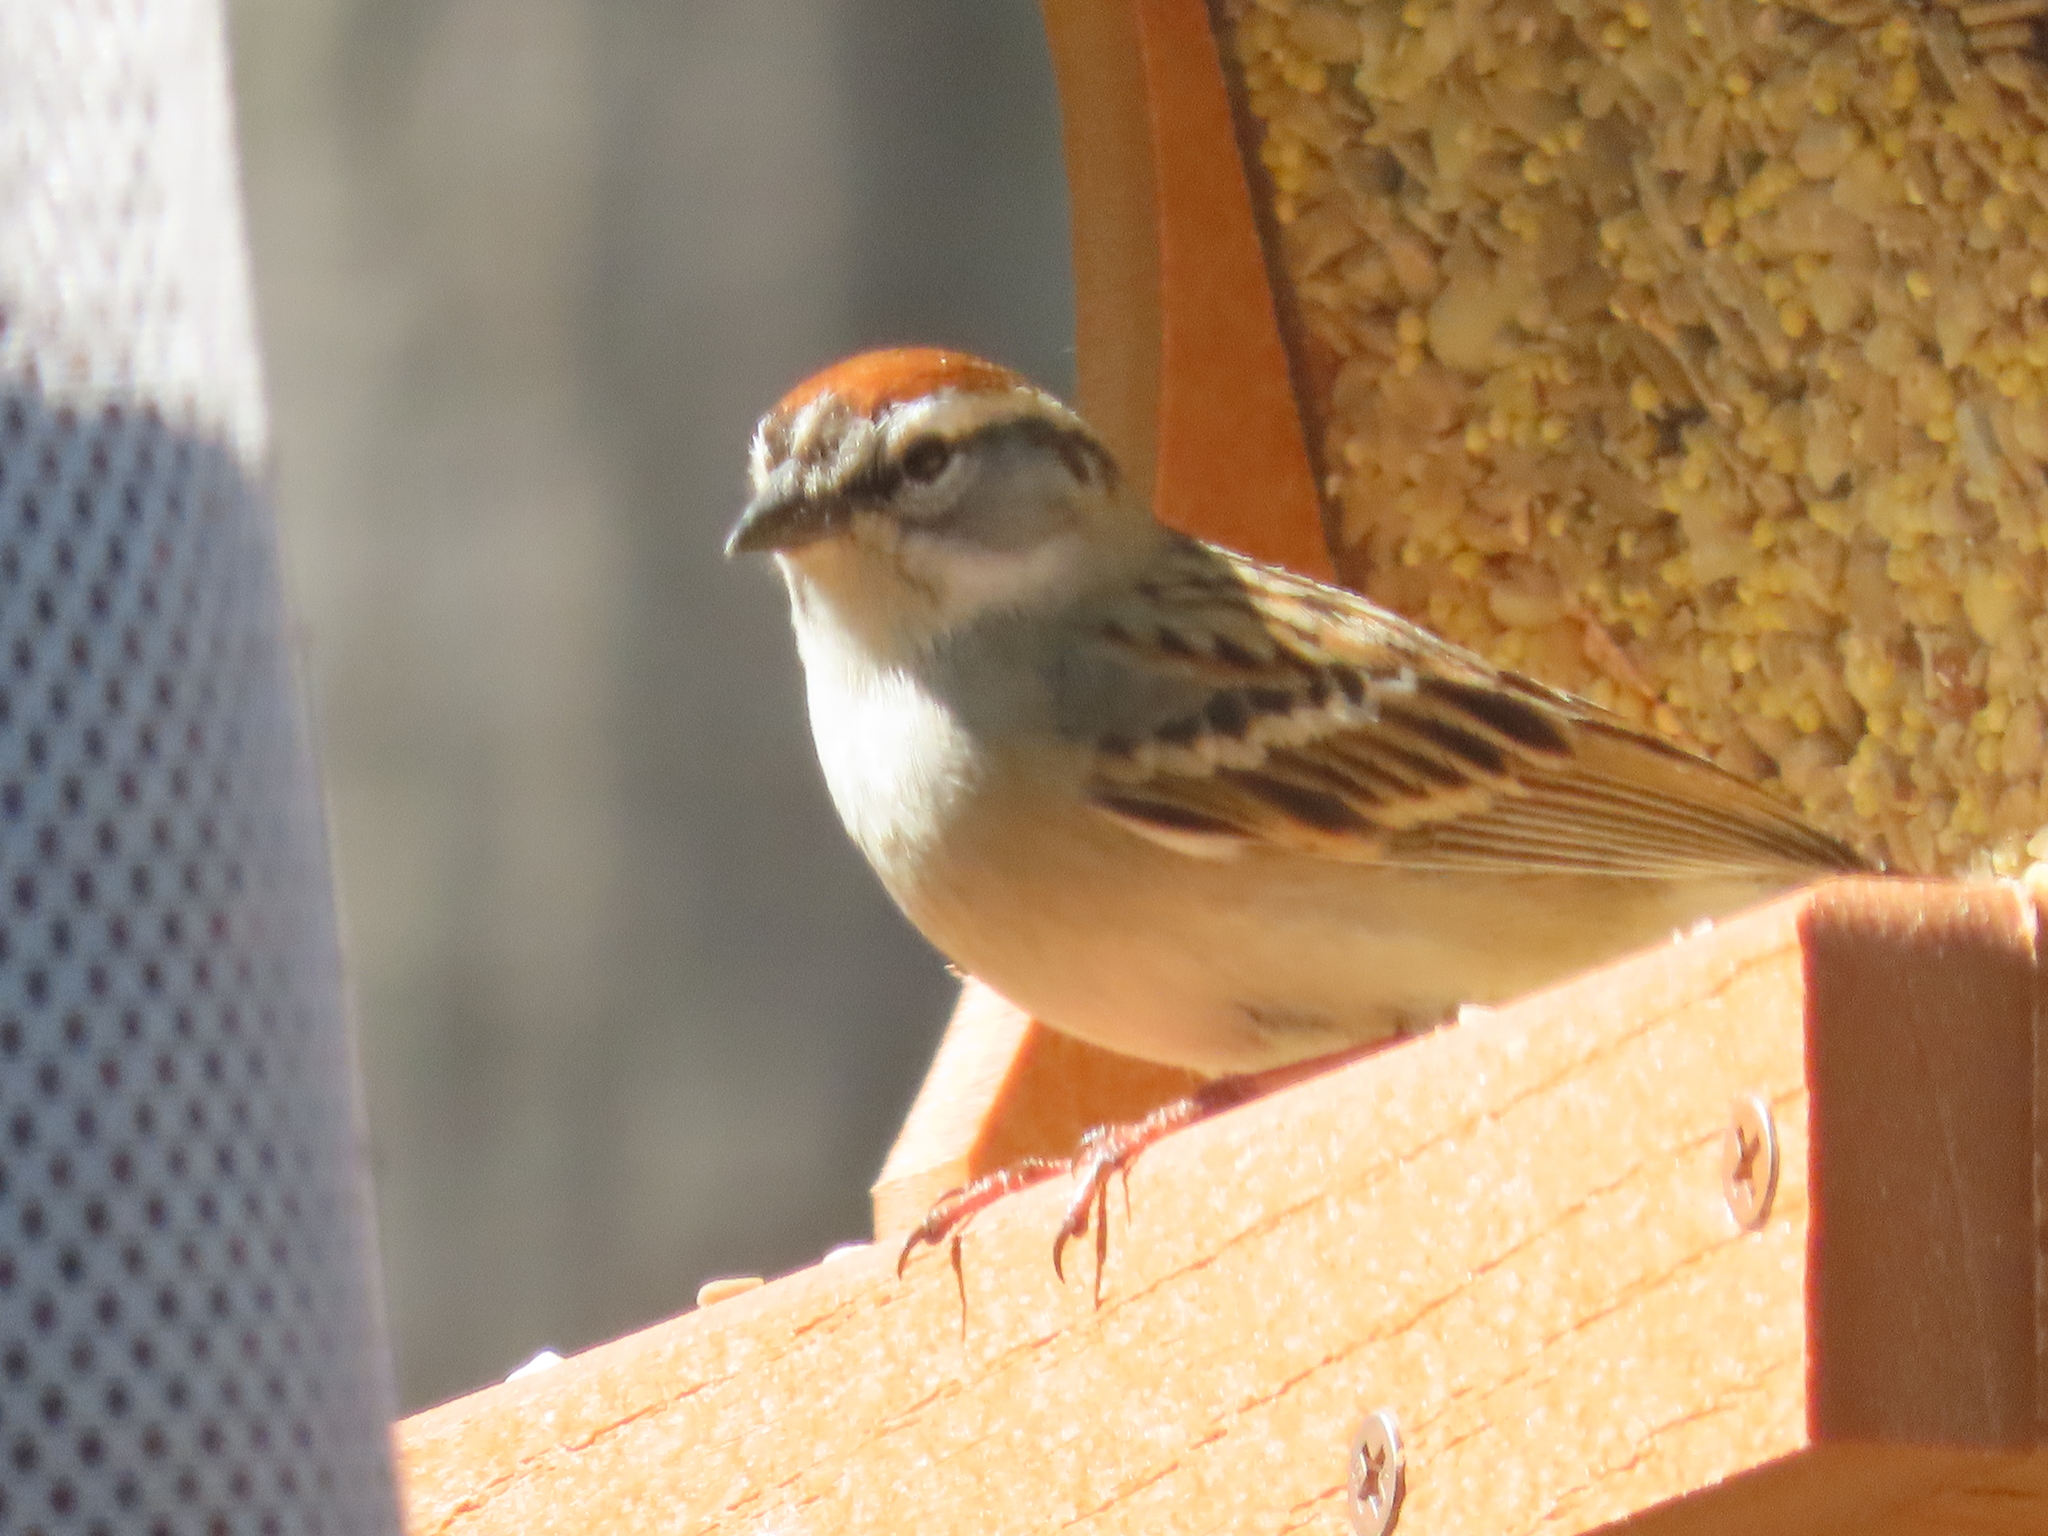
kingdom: Animalia
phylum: Chordata
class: Aves
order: Passeriformes
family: Passerellidae
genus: Spizella
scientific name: Spizella passerina
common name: Chipping sparrow
